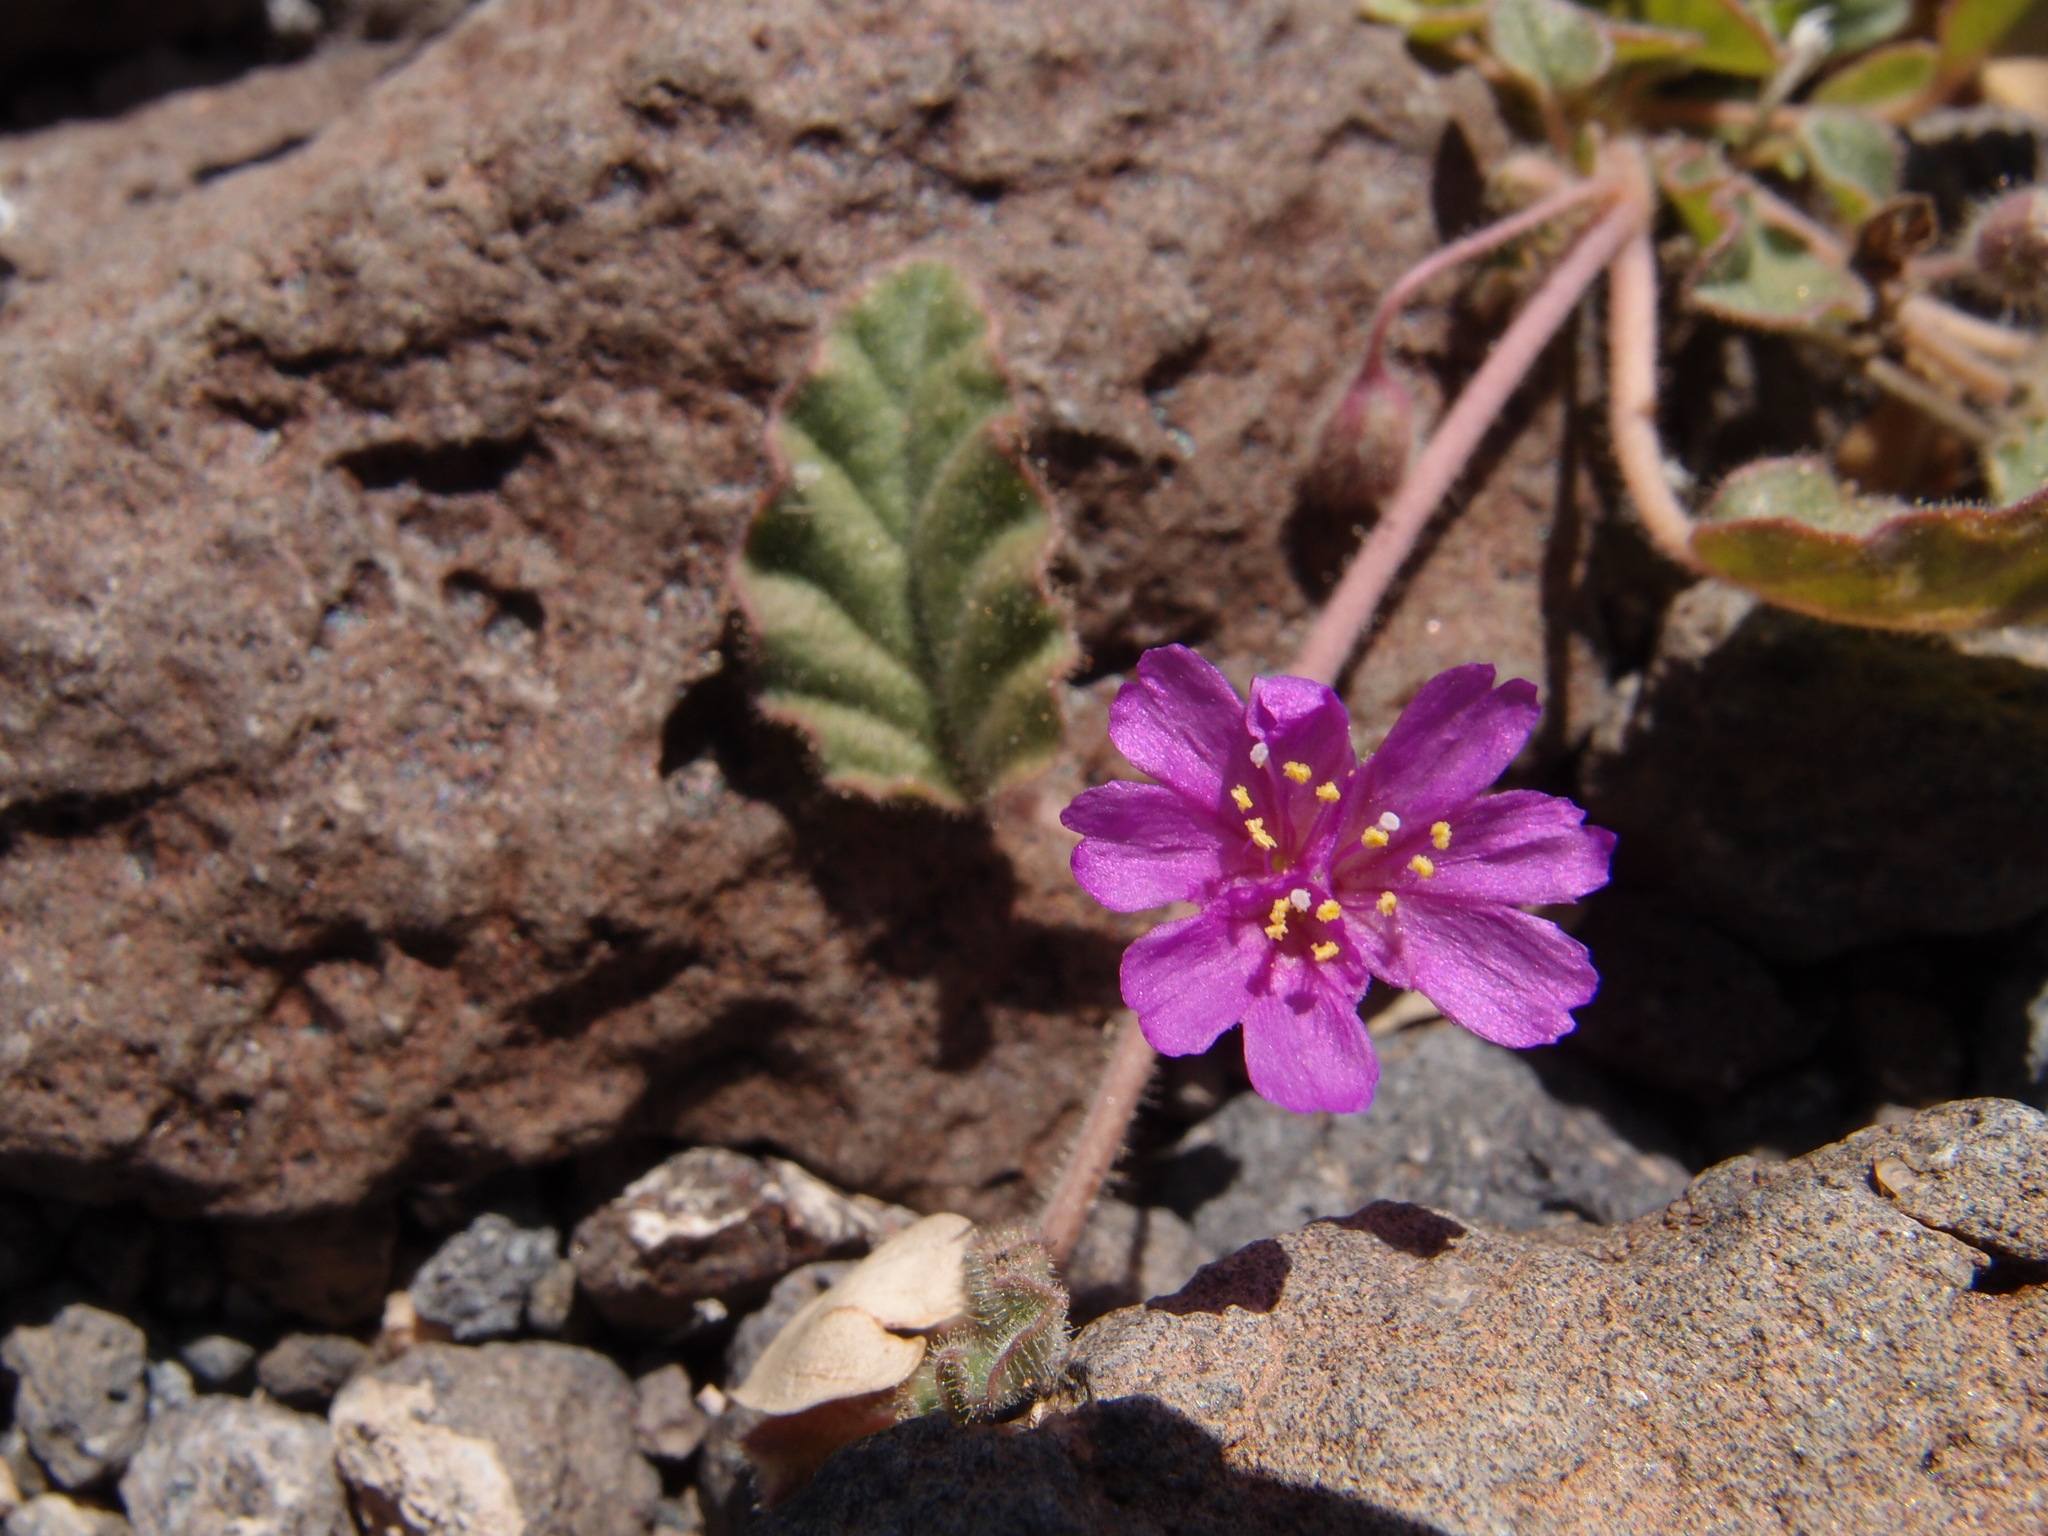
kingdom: Plantae
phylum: Tracheophyta
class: Magnoliopsida
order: Caryophyllales
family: Nyctaginaceae
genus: Allionia
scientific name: Allionia incarnata
